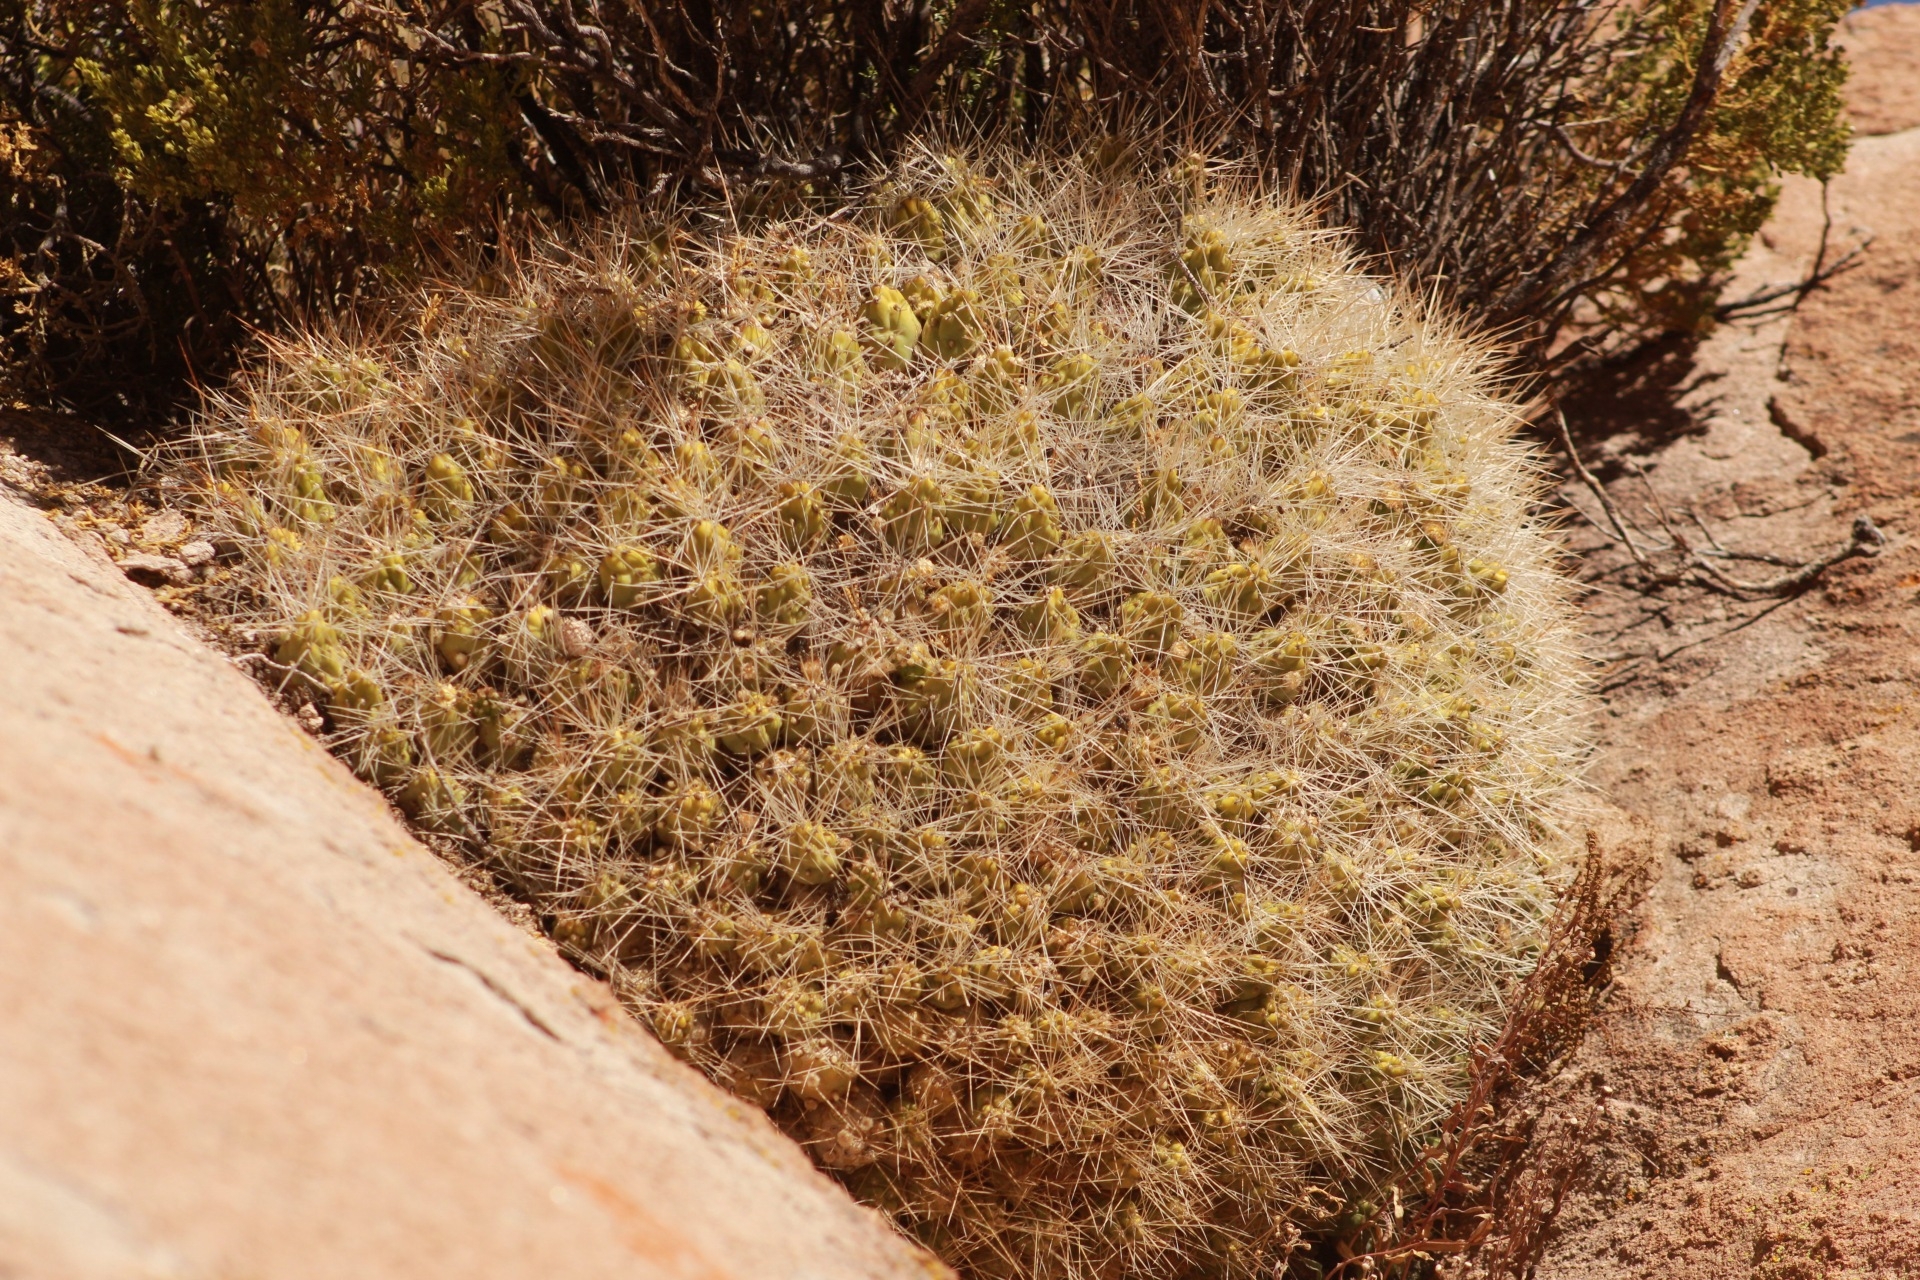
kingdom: Plantae
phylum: Tracheophyta
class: Magnoliopsida
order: Caryophyllales
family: Cactaceae
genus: Cumulopuntia
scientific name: Cumulopuntia boliviana
